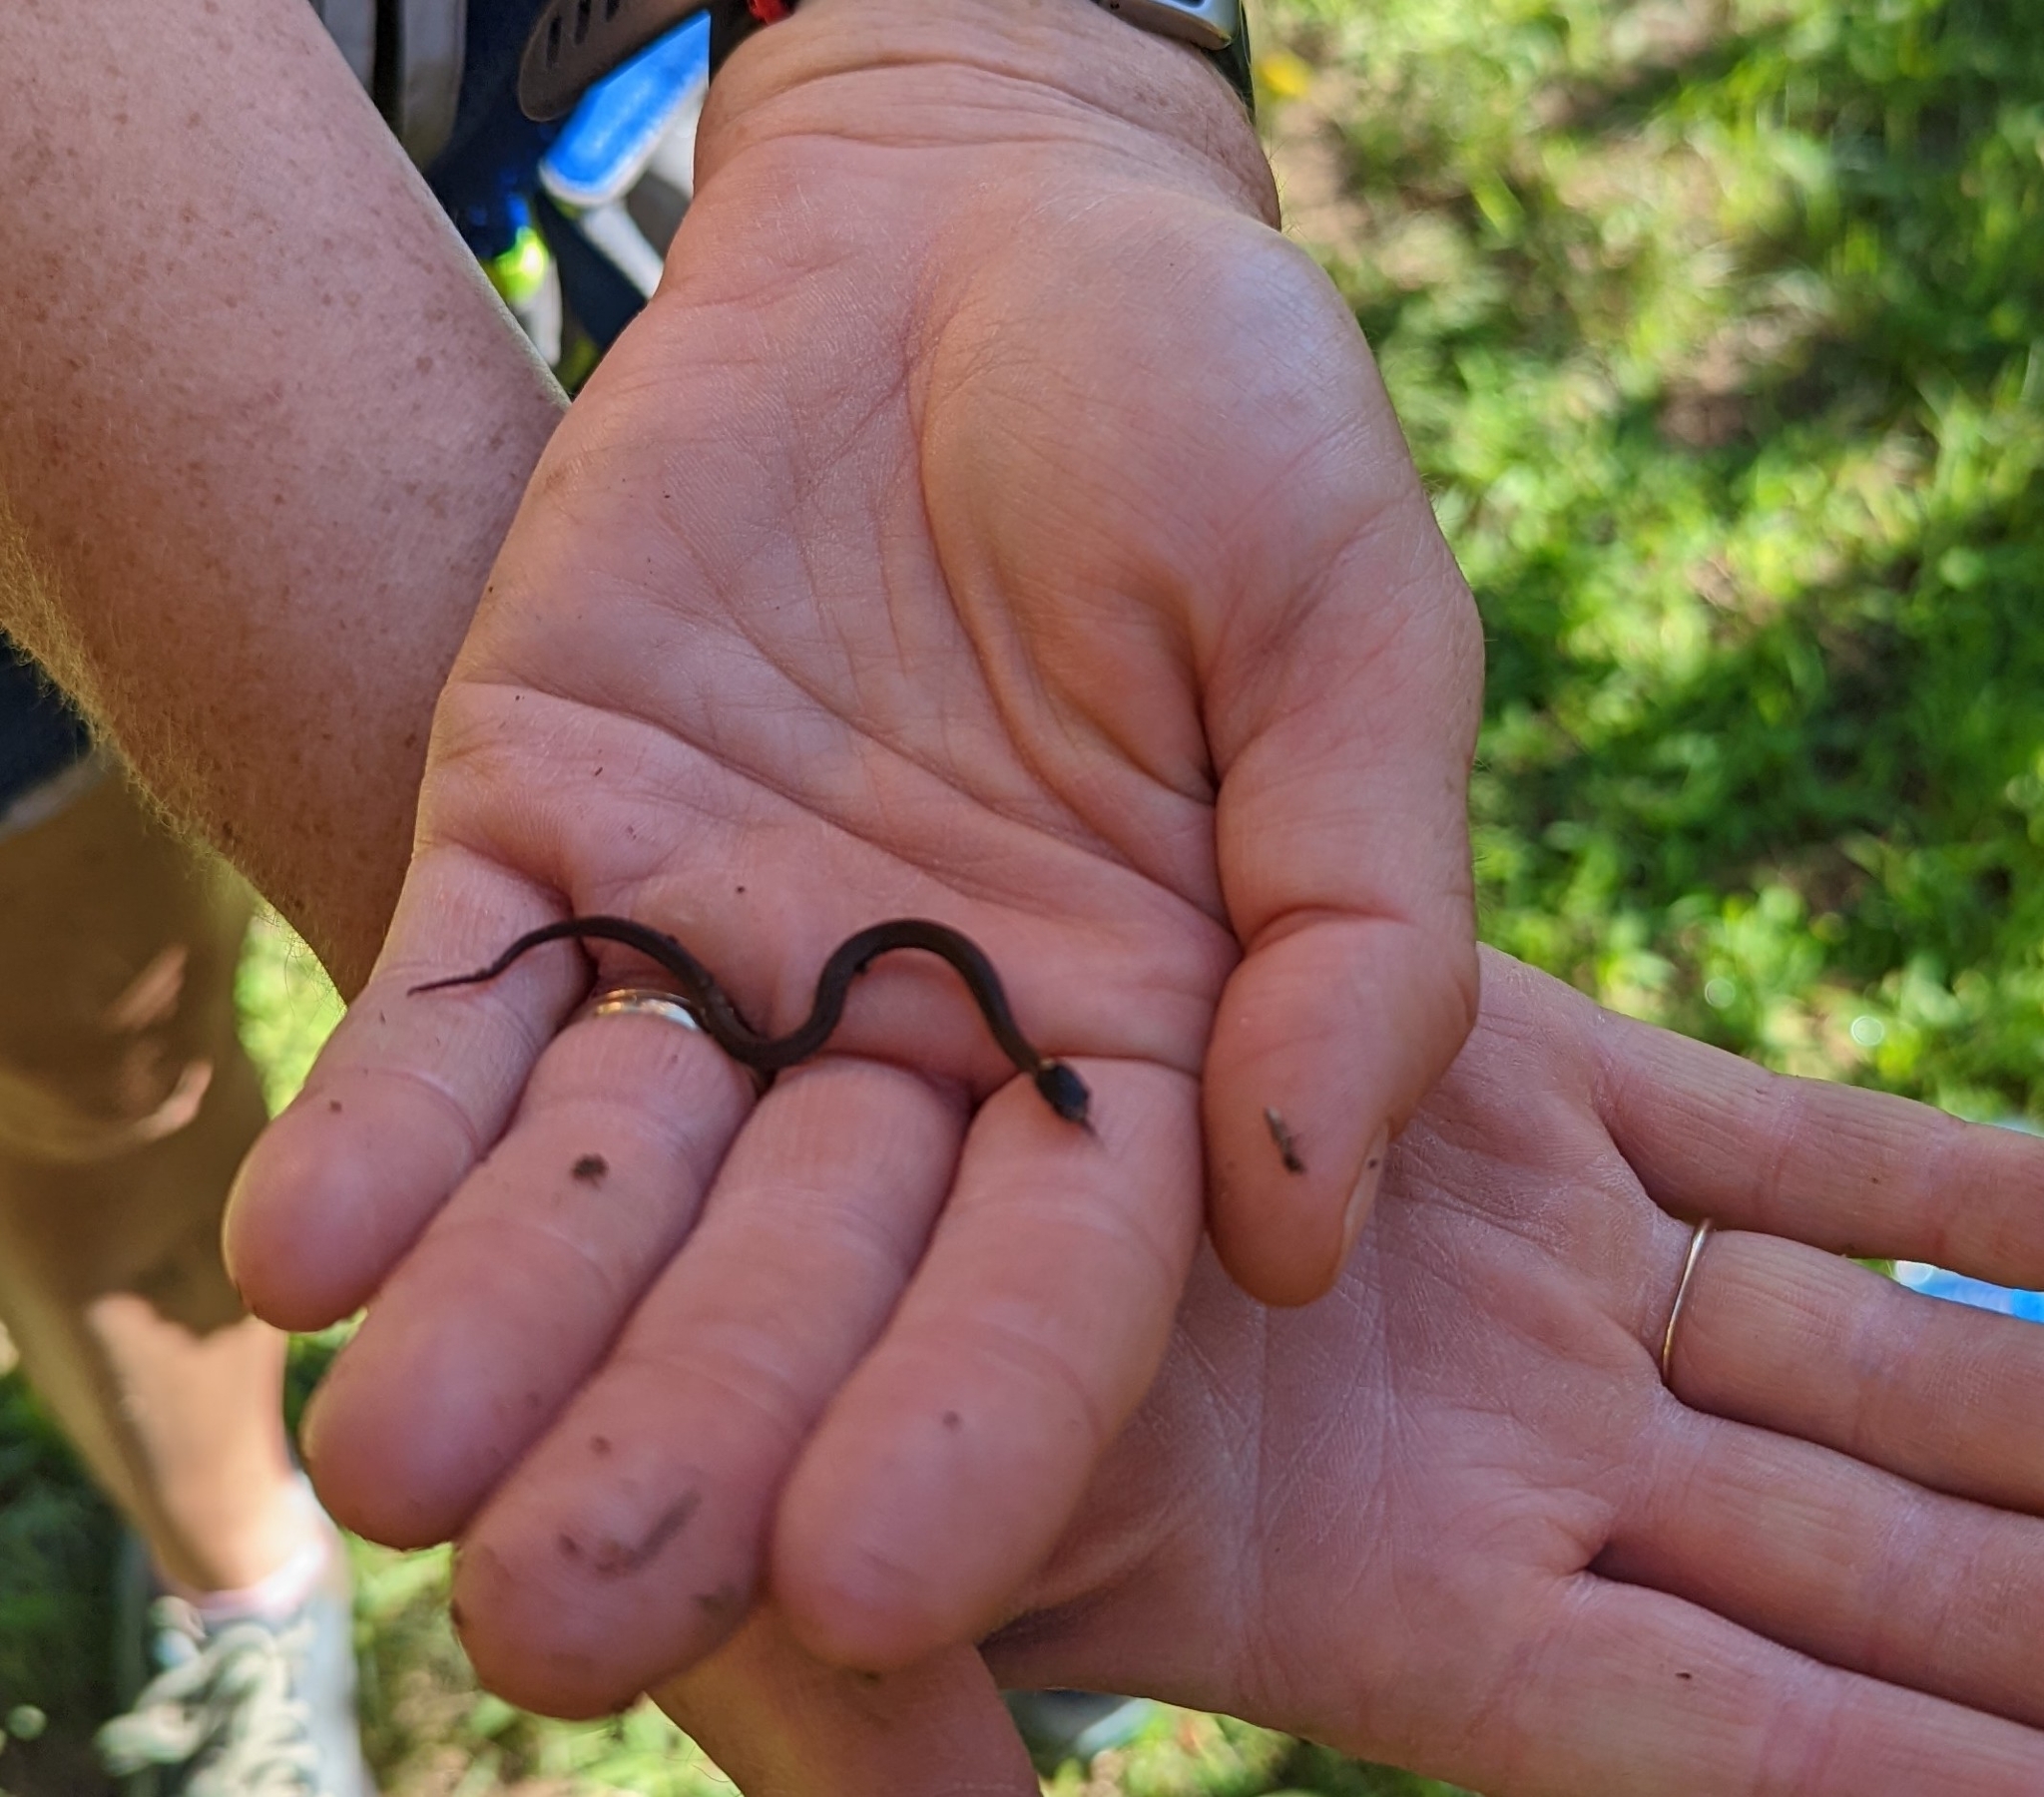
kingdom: Animalia
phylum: Chordata
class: Squamata
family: Colubridae
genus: Storeria
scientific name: Storeria occipitomaculata
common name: Redbelly snake
